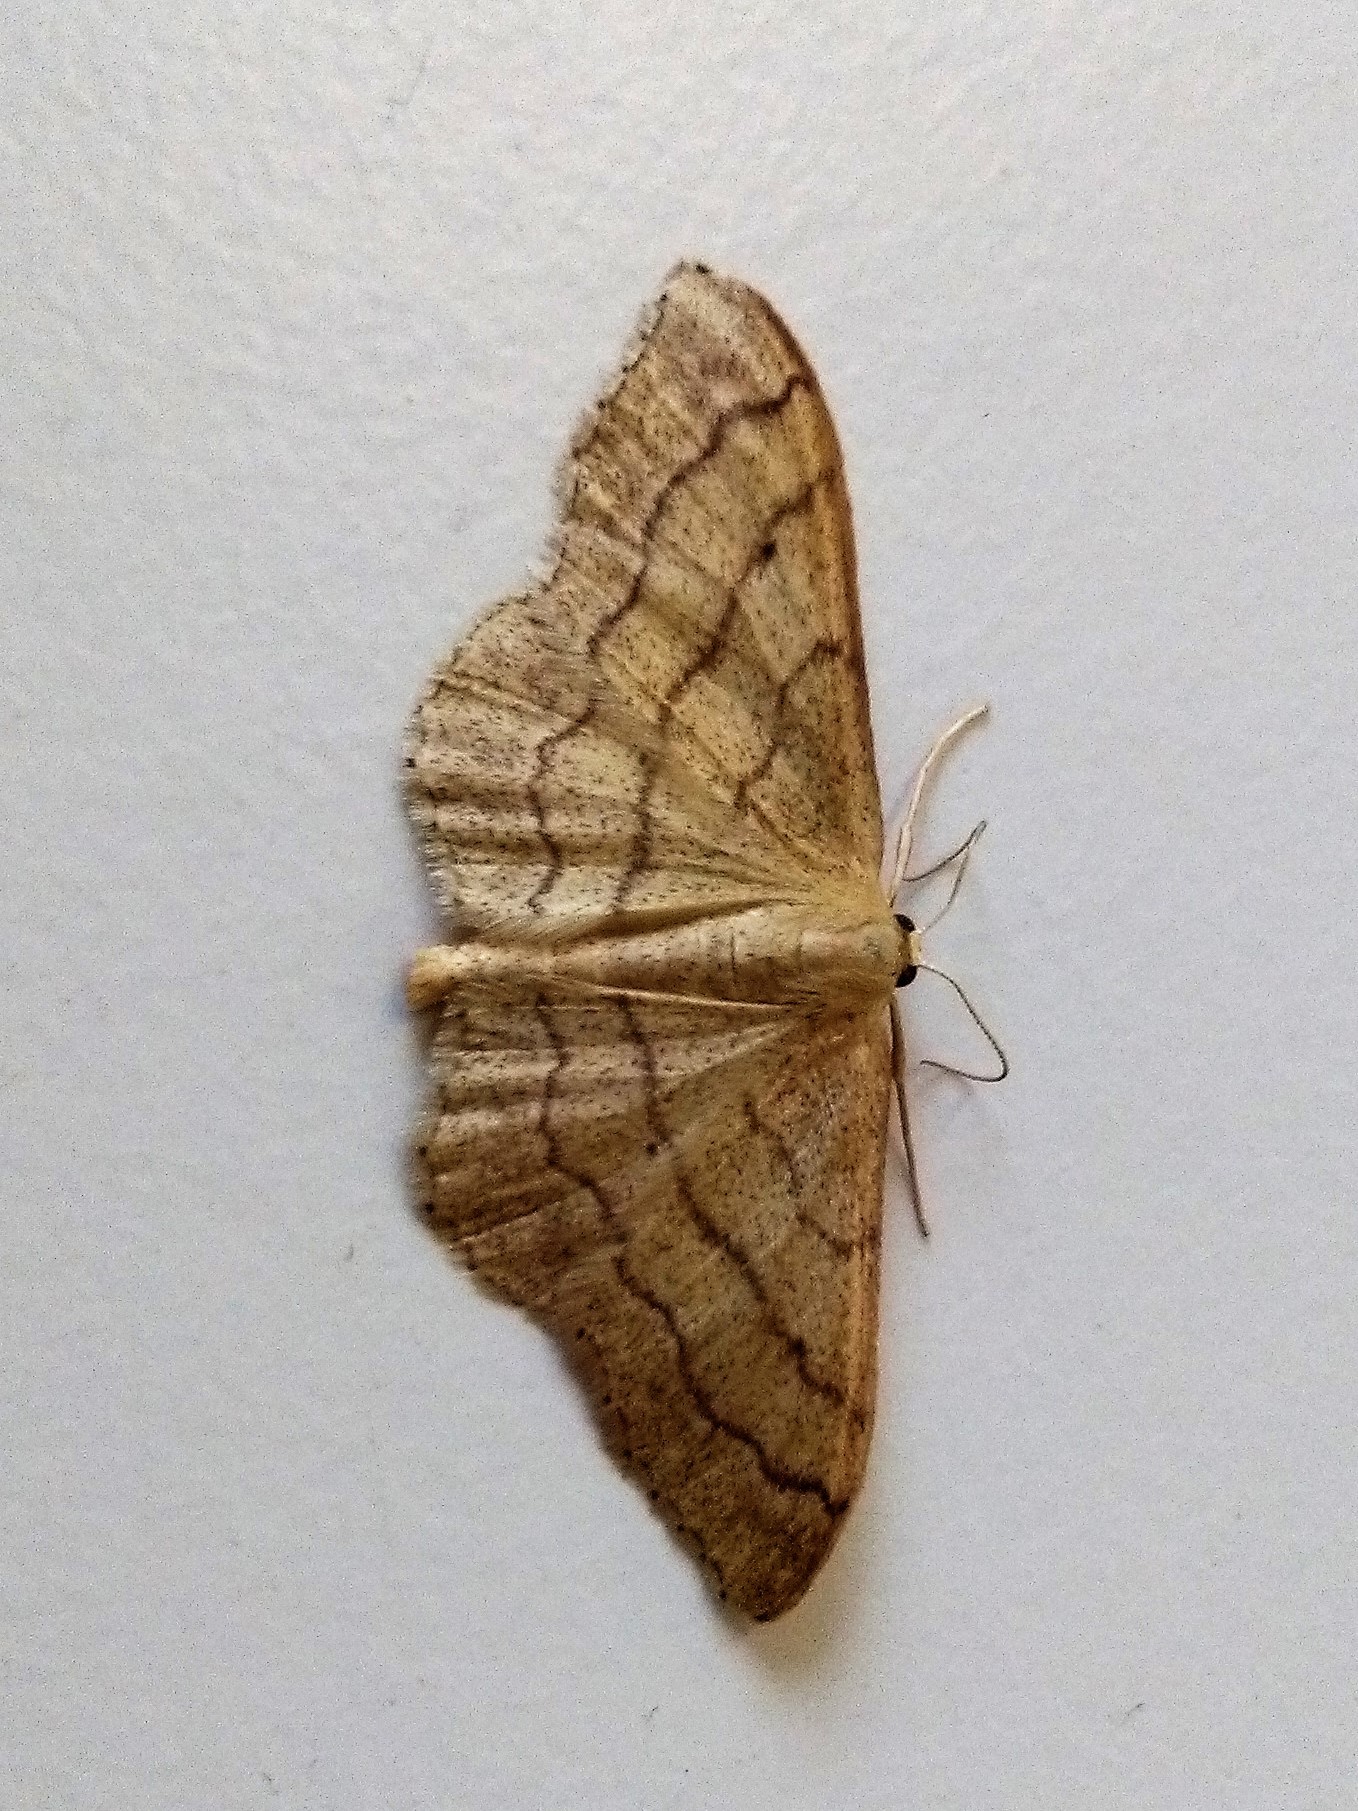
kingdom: Animalia
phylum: Arthropoda
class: Insecta
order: Lepidoptera
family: Geometridae
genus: Idaea
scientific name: Idaea aversata
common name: Riband wave
